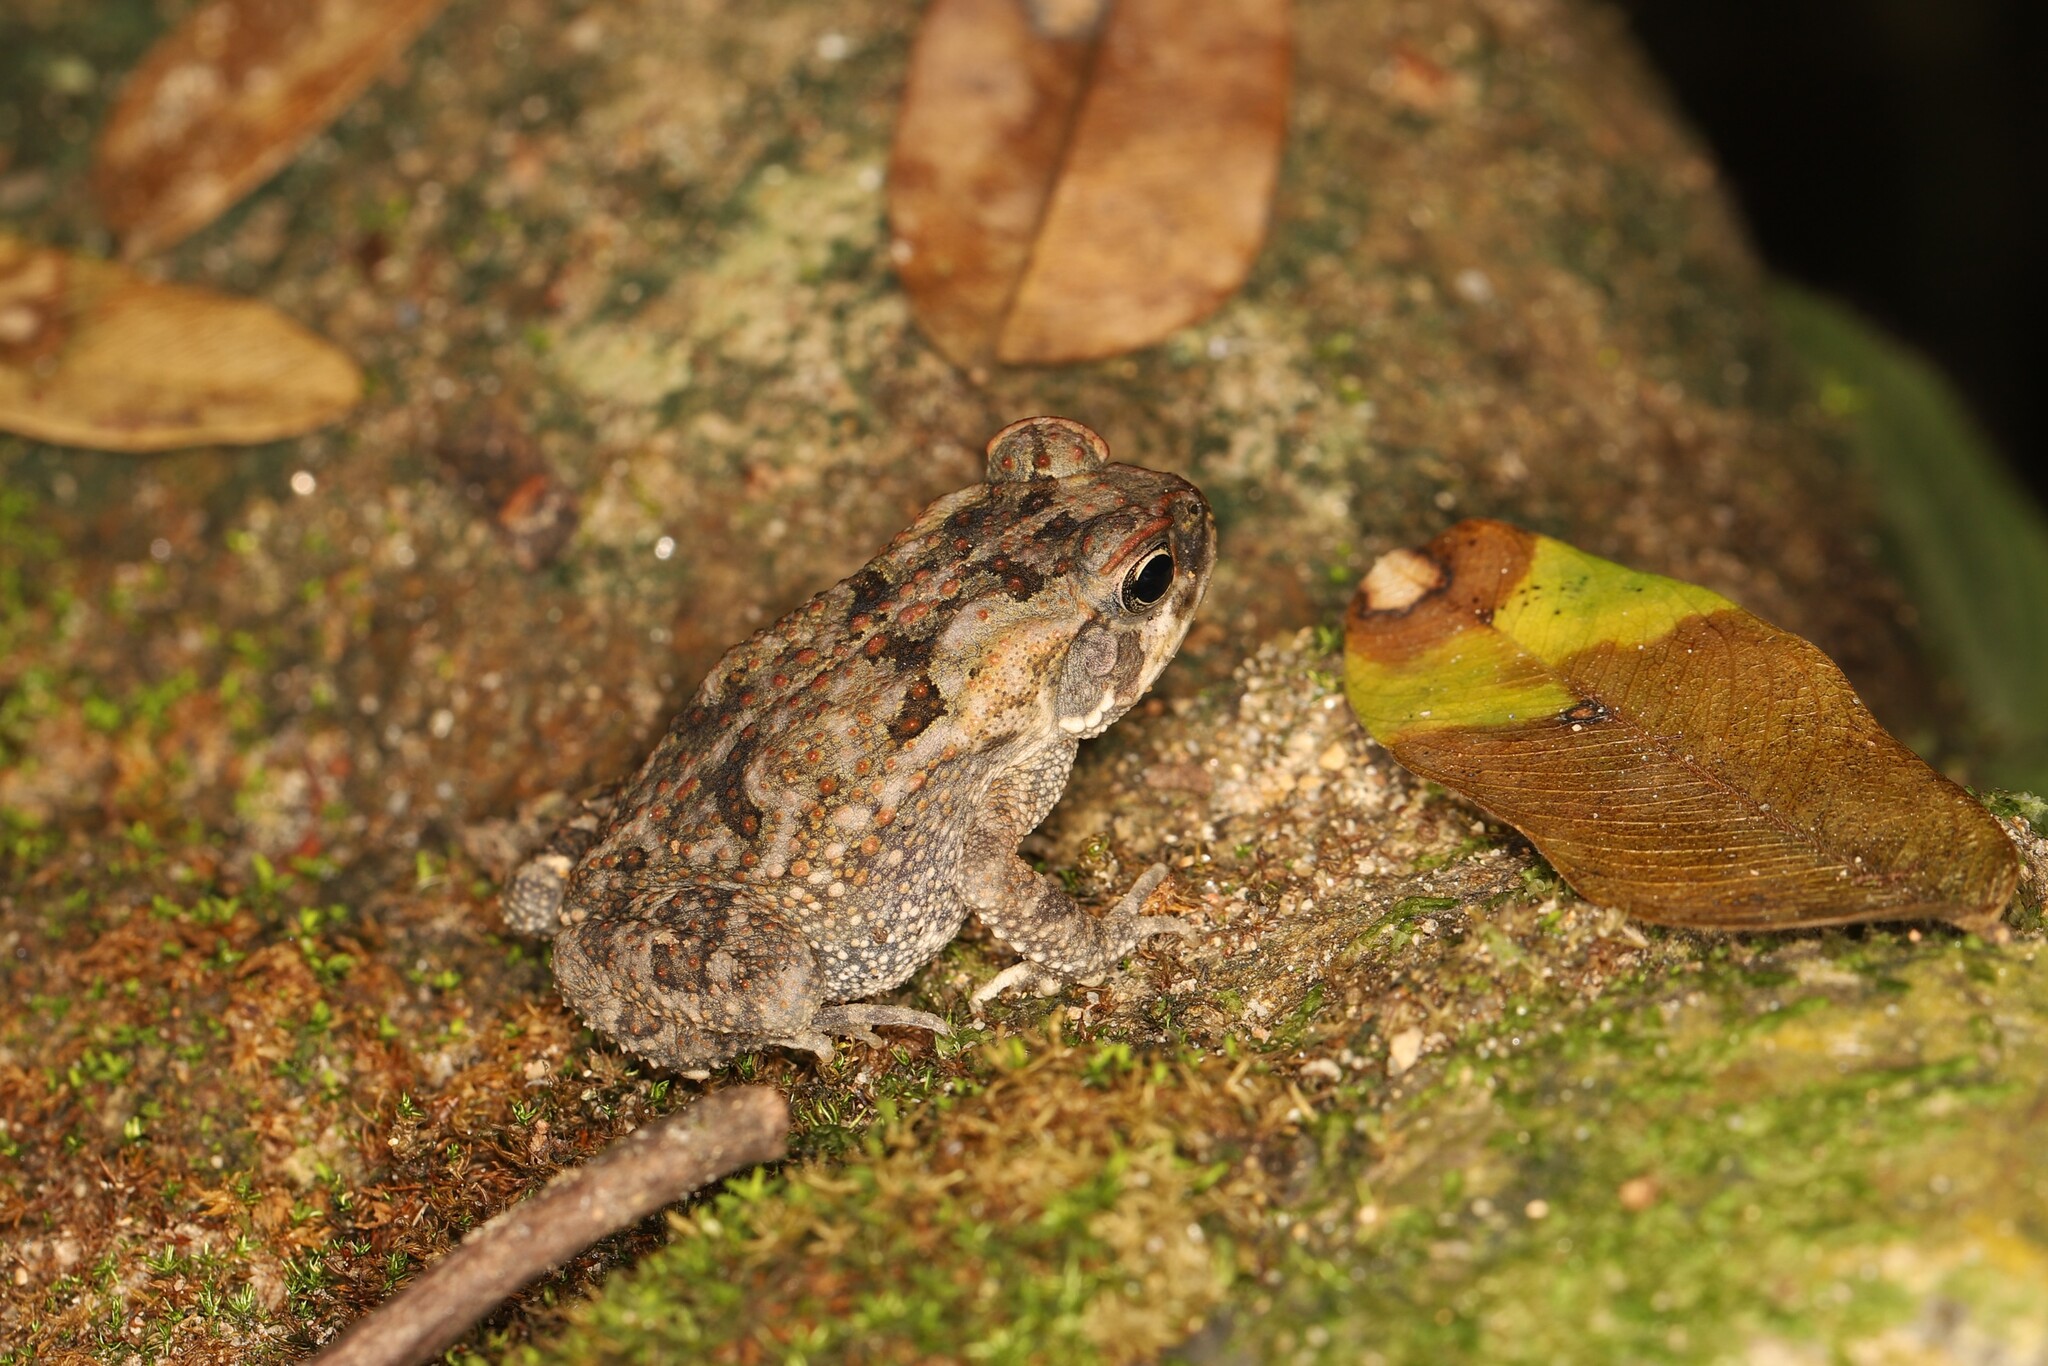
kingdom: Animalia
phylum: Chordata
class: Amphibia
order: Anura
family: Bufonidae
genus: Rhinella
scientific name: Rhinella horribilis
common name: Mesoamerican cane toad
